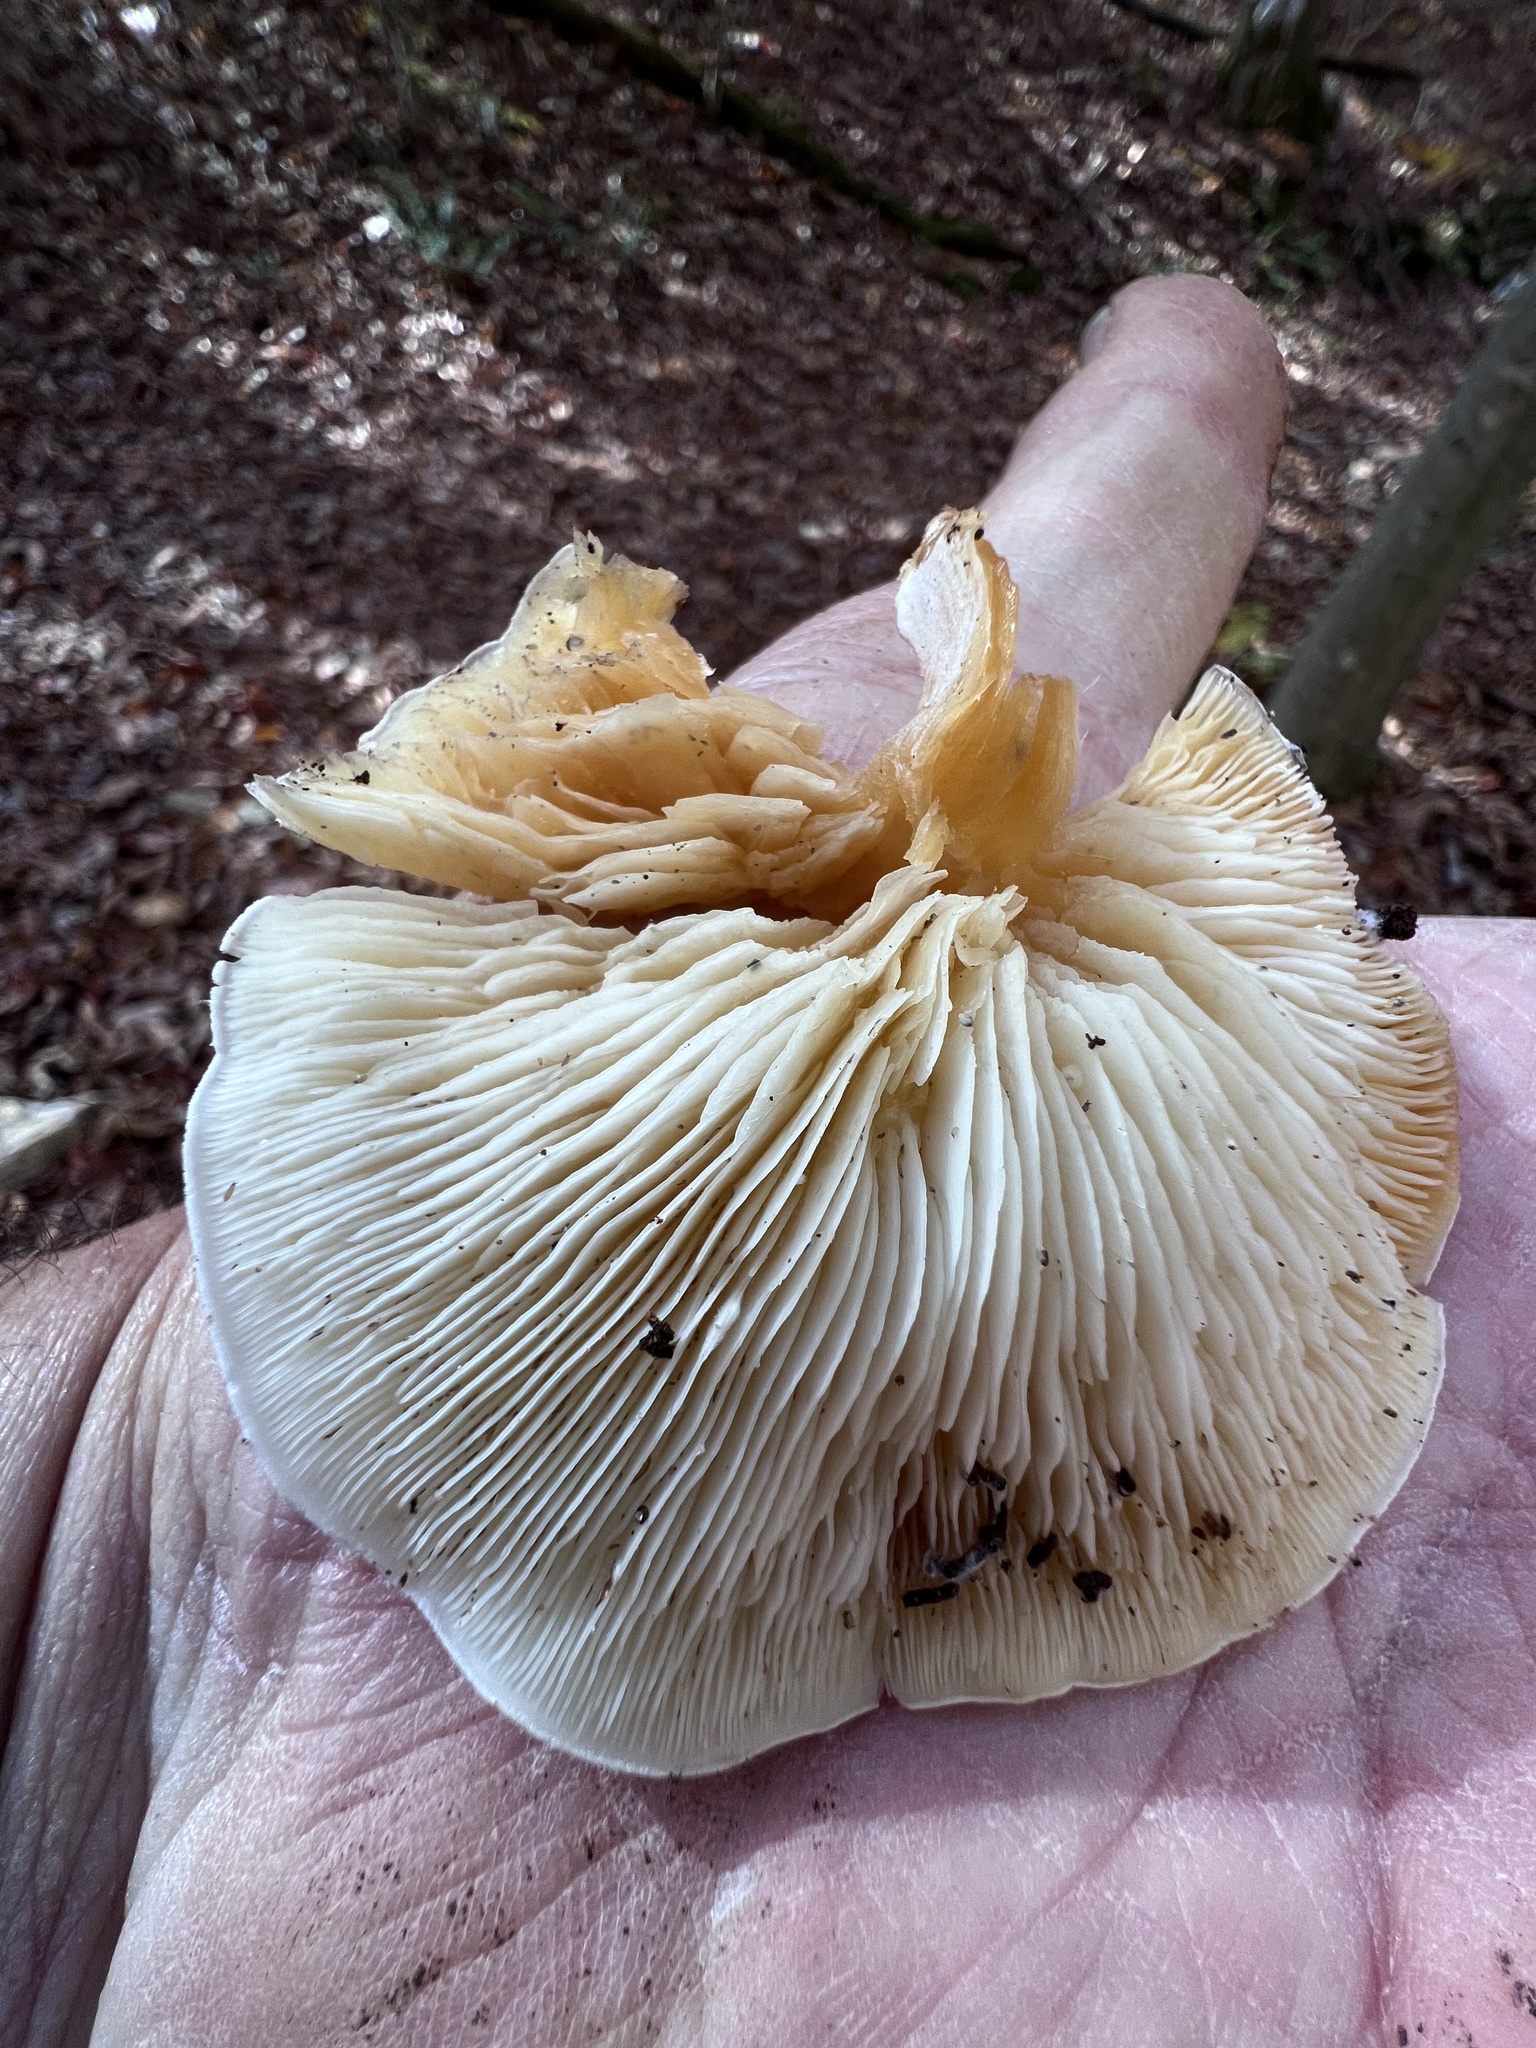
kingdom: Fungi
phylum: Basidiomycota
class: Agaricomycetes
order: Agaricales
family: Lyophyllaceae
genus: Ossicaulis
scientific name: Ossicaulis lignatilis
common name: Mealy oyster
